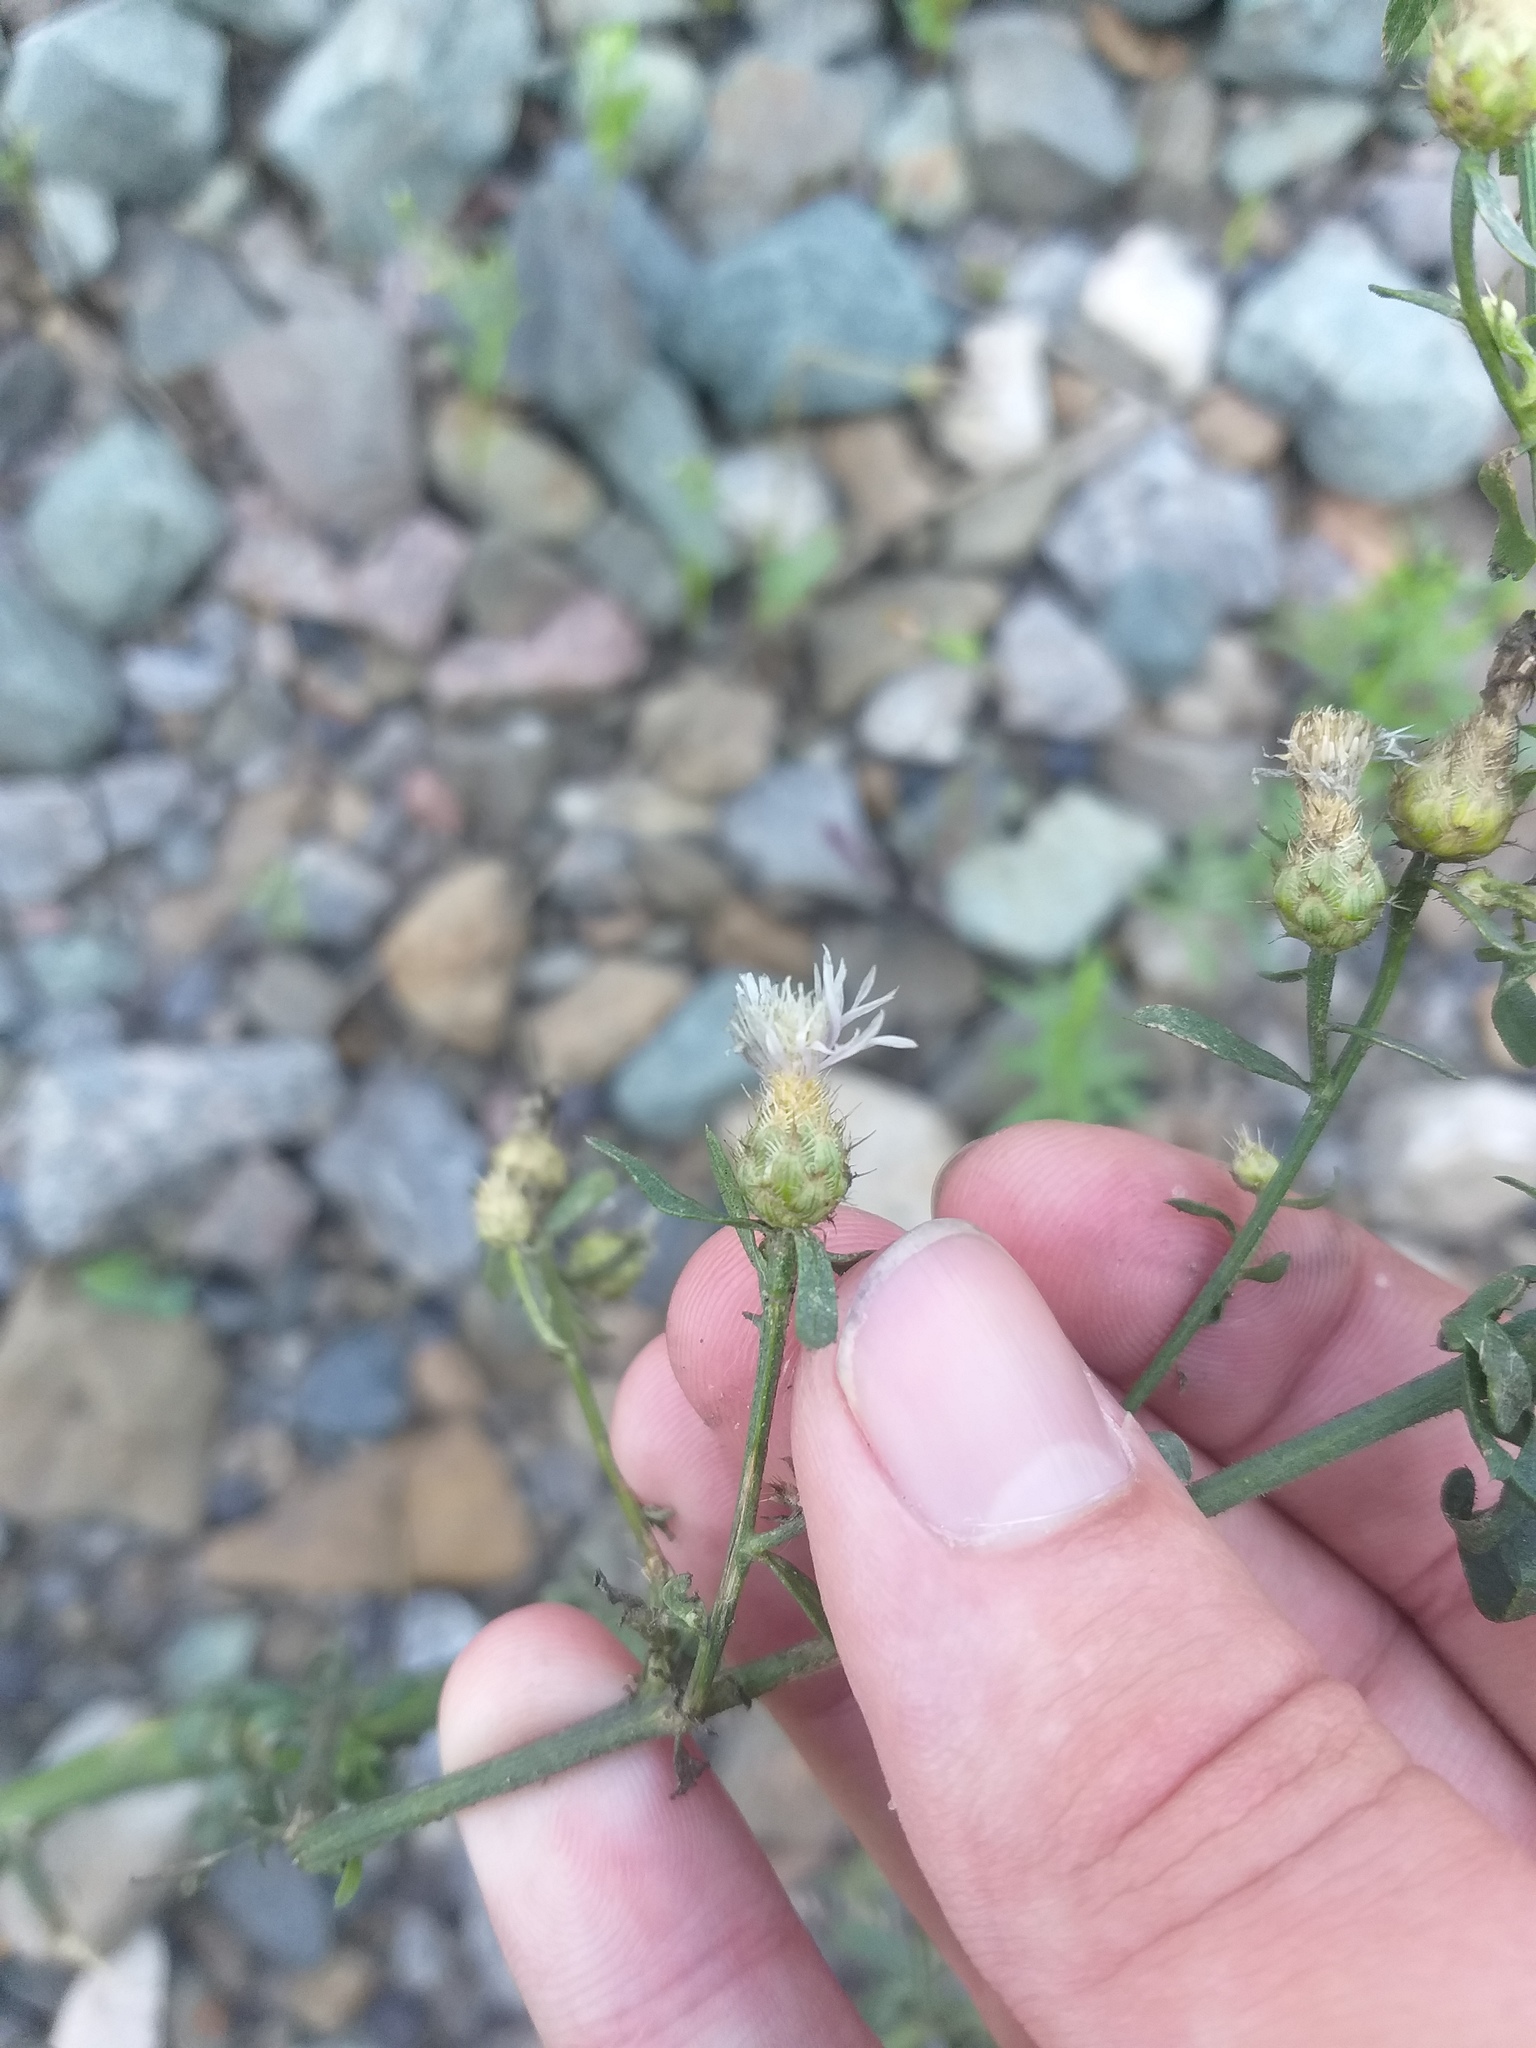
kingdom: Plantae
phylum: Tracheophyta
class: Magnoliopsida
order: Asterales
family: Asteraceae
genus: Centaurea
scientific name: Centaurea diffusa
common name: Diffuse knapweed
